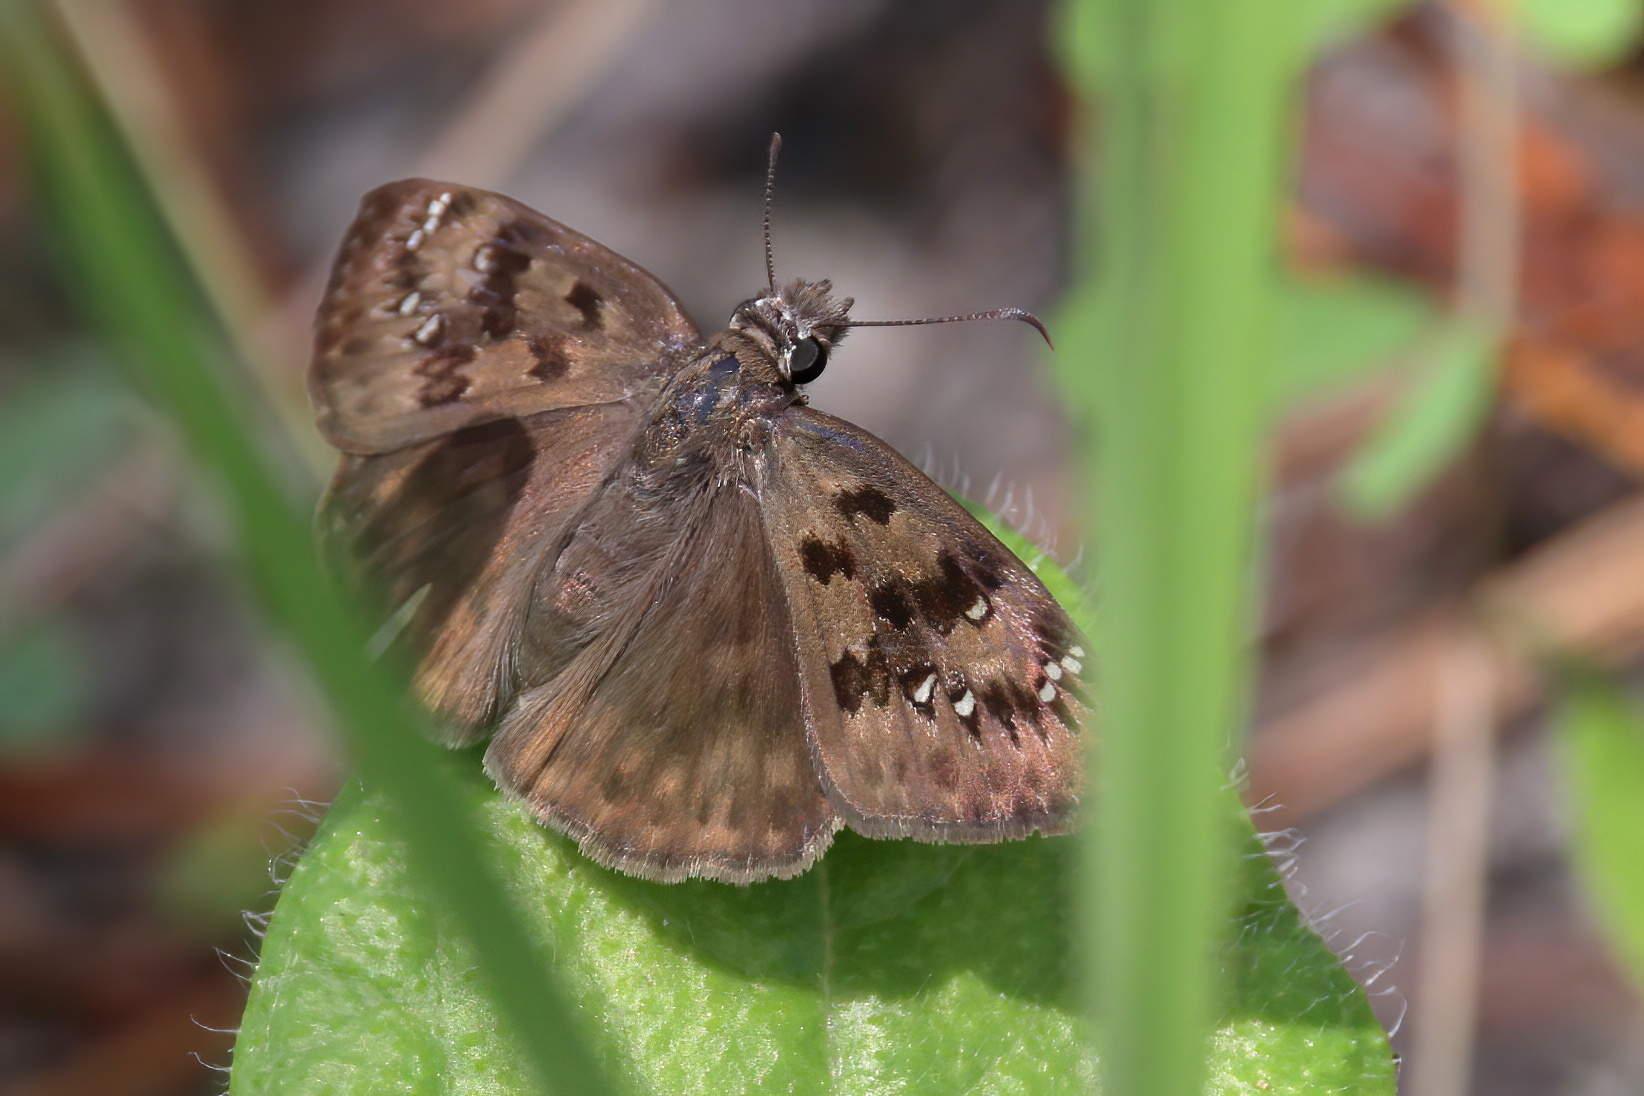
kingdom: Animalia
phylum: Arthropoda
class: Insecta
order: Lepidoptera
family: Hesperiidae
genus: Erynnis
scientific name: Erynnis horatius
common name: Horace's duskywing
